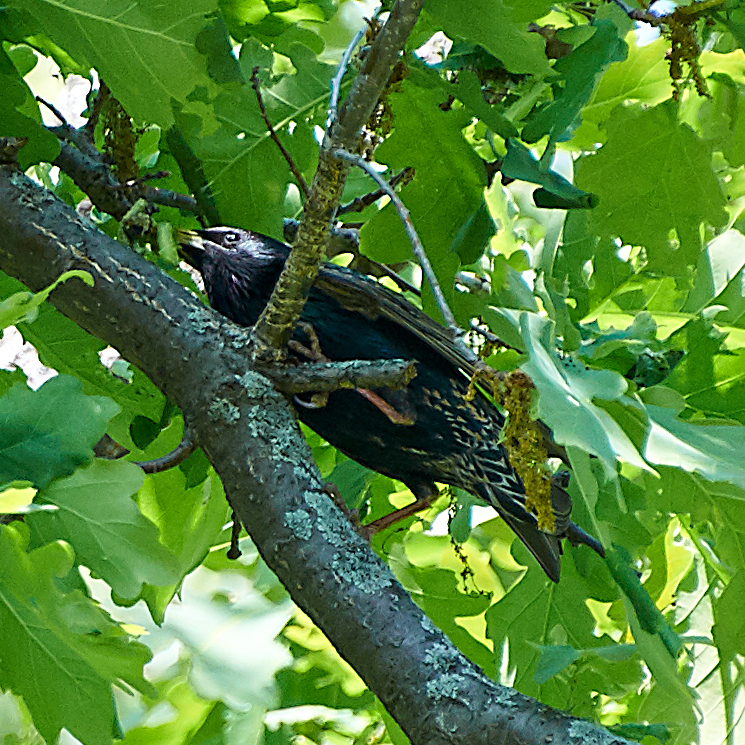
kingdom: Animalia
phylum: Chordata
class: Aves
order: Passeriformes
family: Sturnidae
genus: Sturnus
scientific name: Sturnus vulgaris
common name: Common starling
